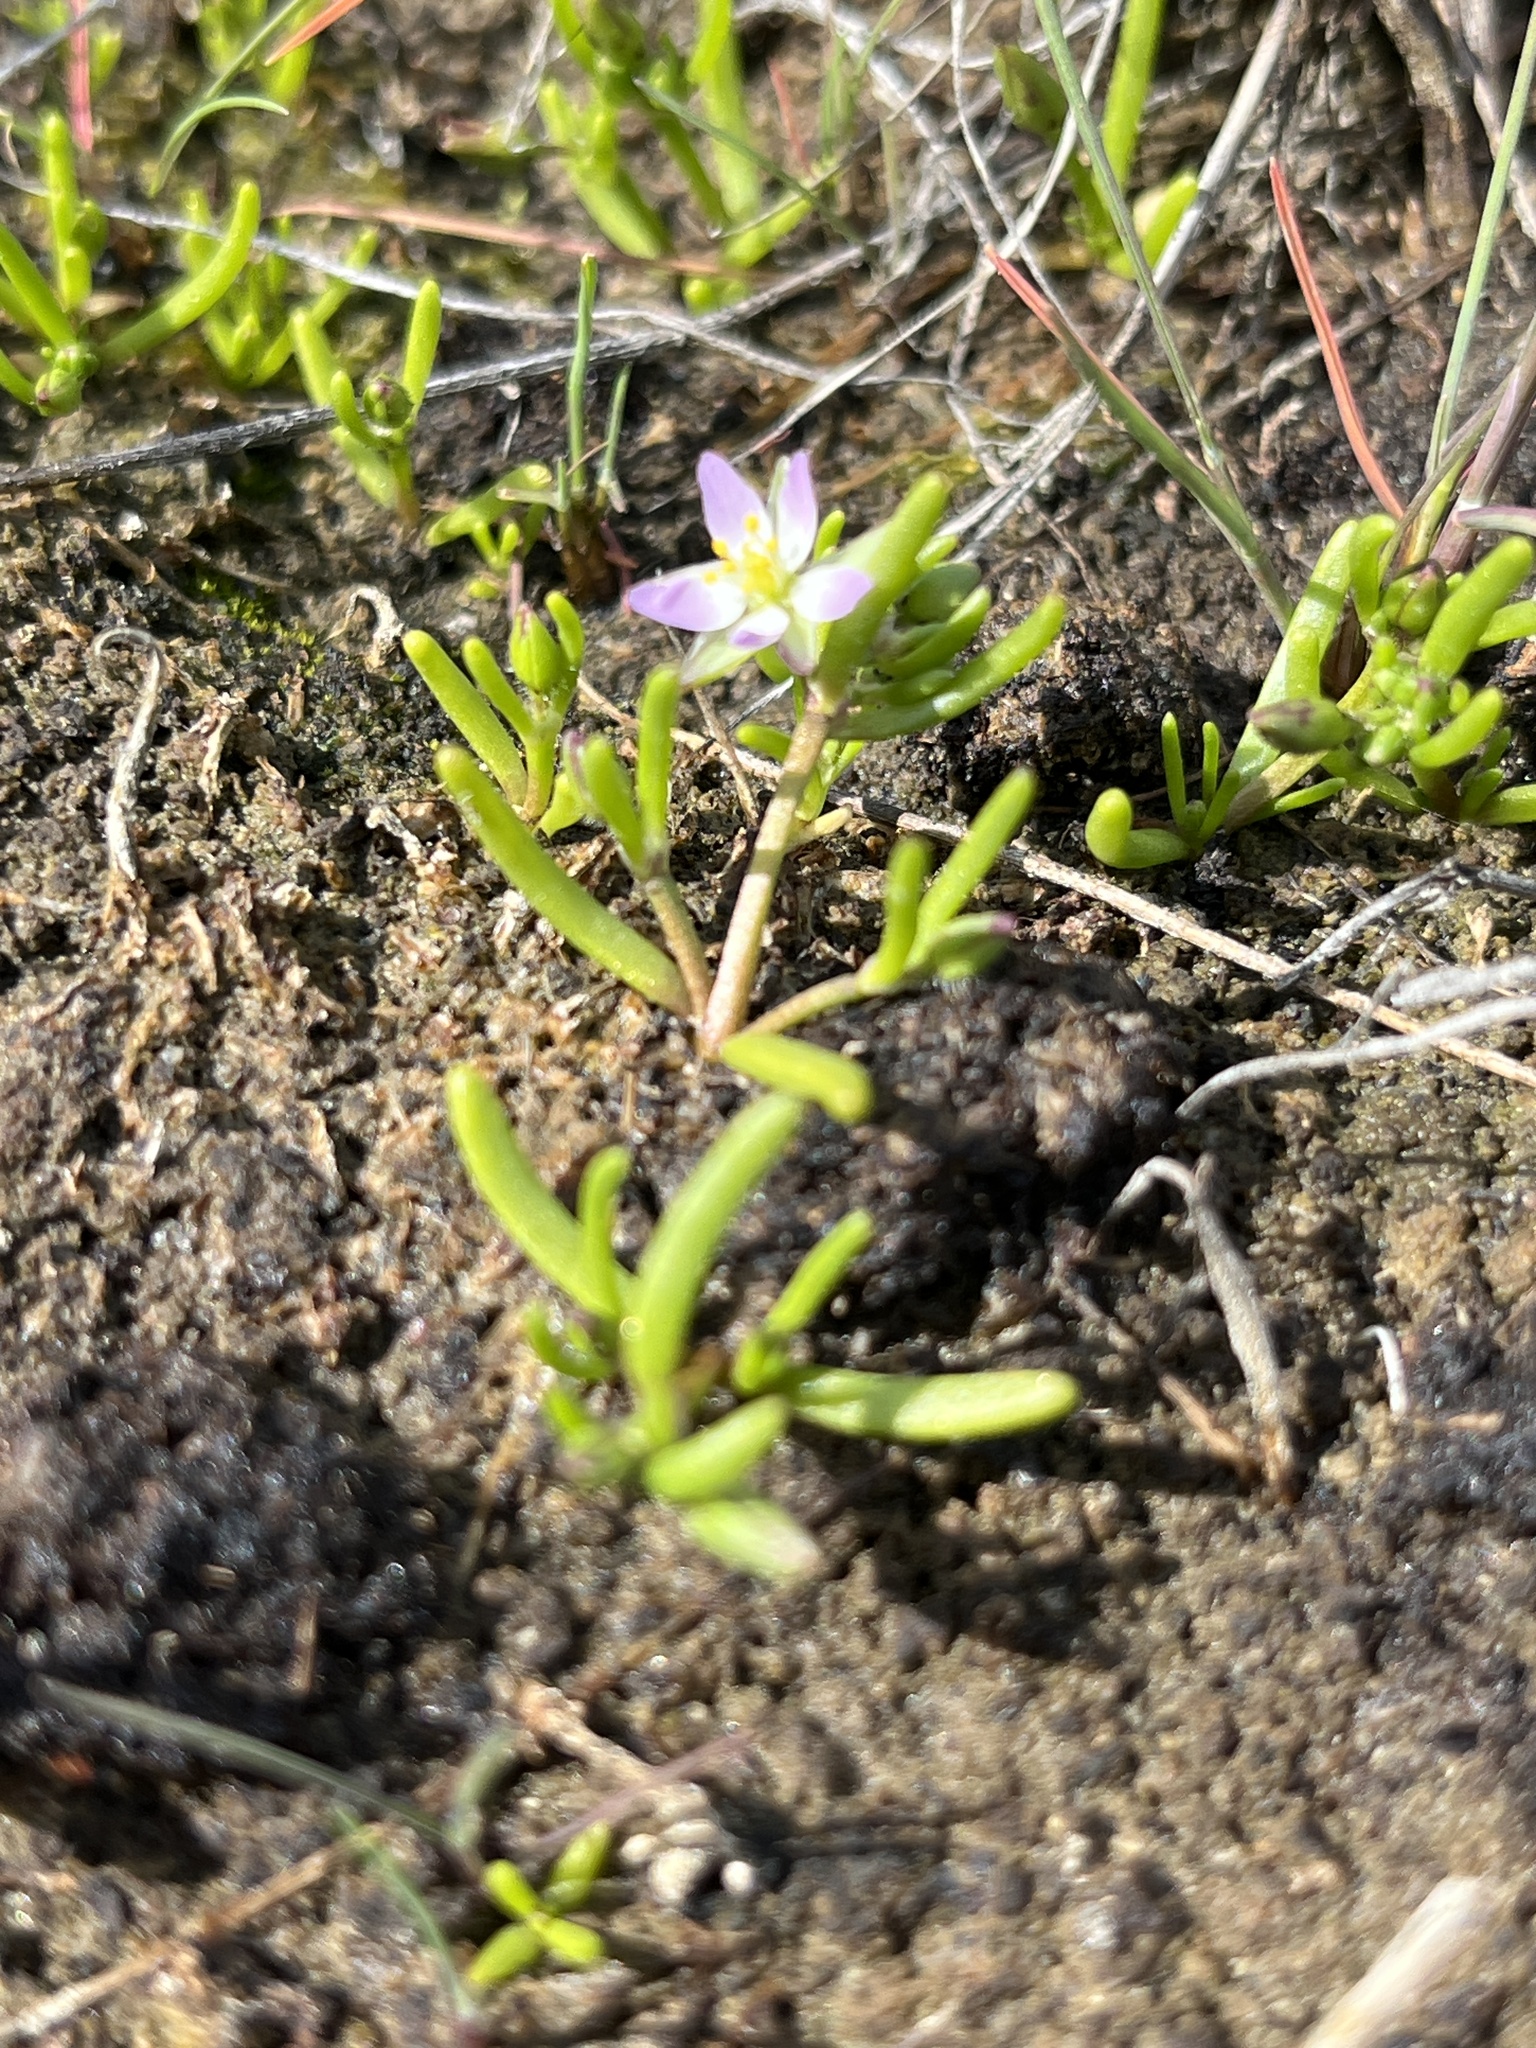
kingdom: Plantae
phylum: Tracheophyta
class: Magnoliopsida
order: Caryophyllales
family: Caryophyllaceae
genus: Spergularia
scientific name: Spergularia canadensis
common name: Canada sand-spurrey
